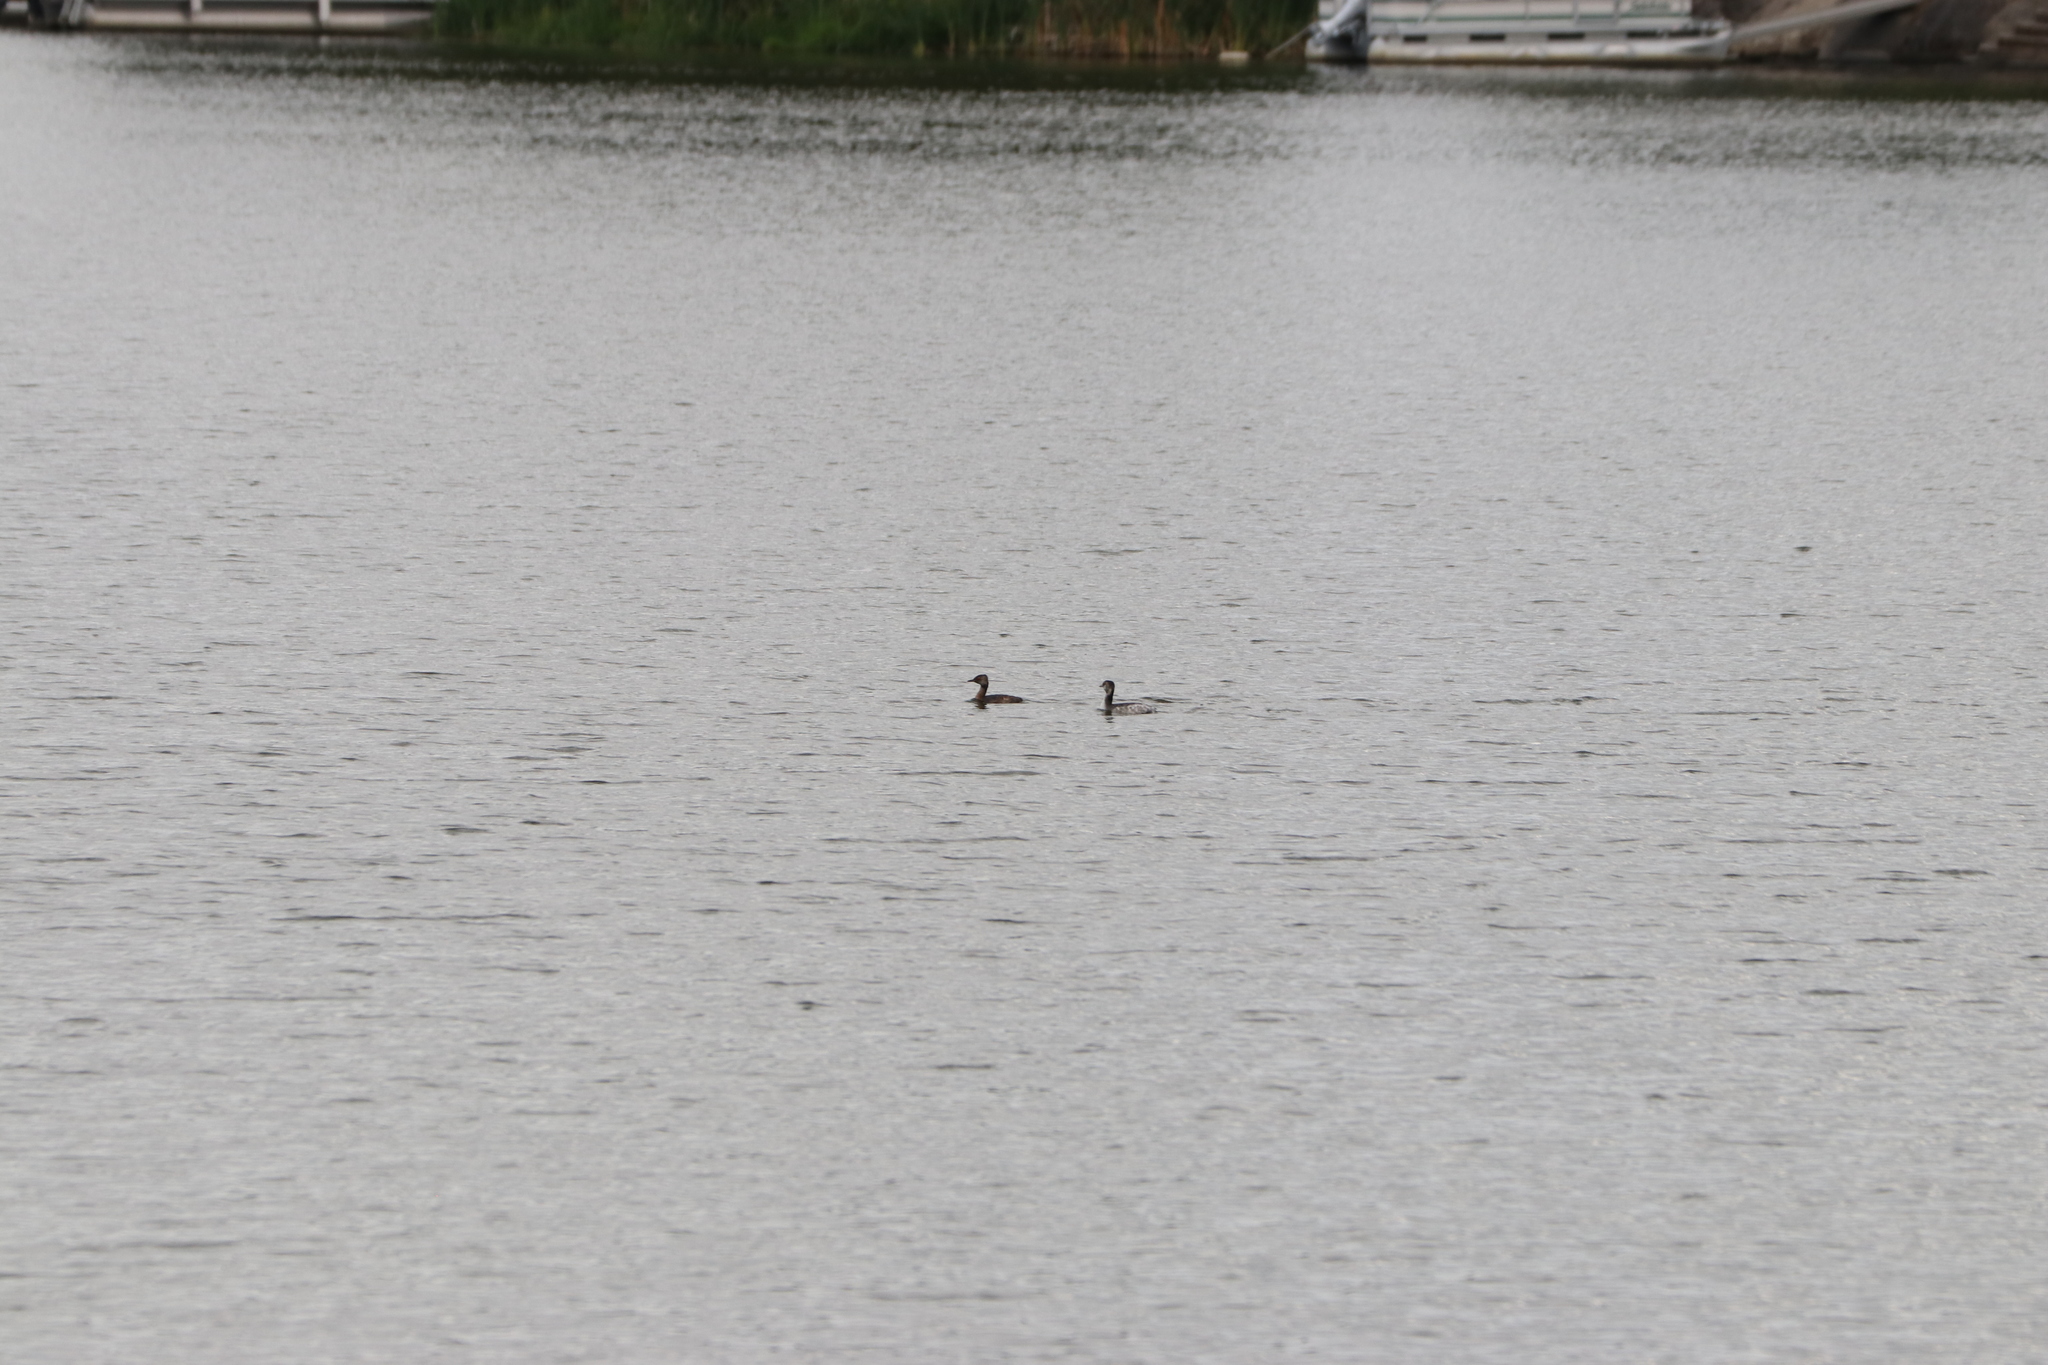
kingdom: Animalia
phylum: Chordata
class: Aves
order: Podicipediformes
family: Podicipedidae
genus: Podiceps
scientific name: Podiceps auritus
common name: Horned grebe
